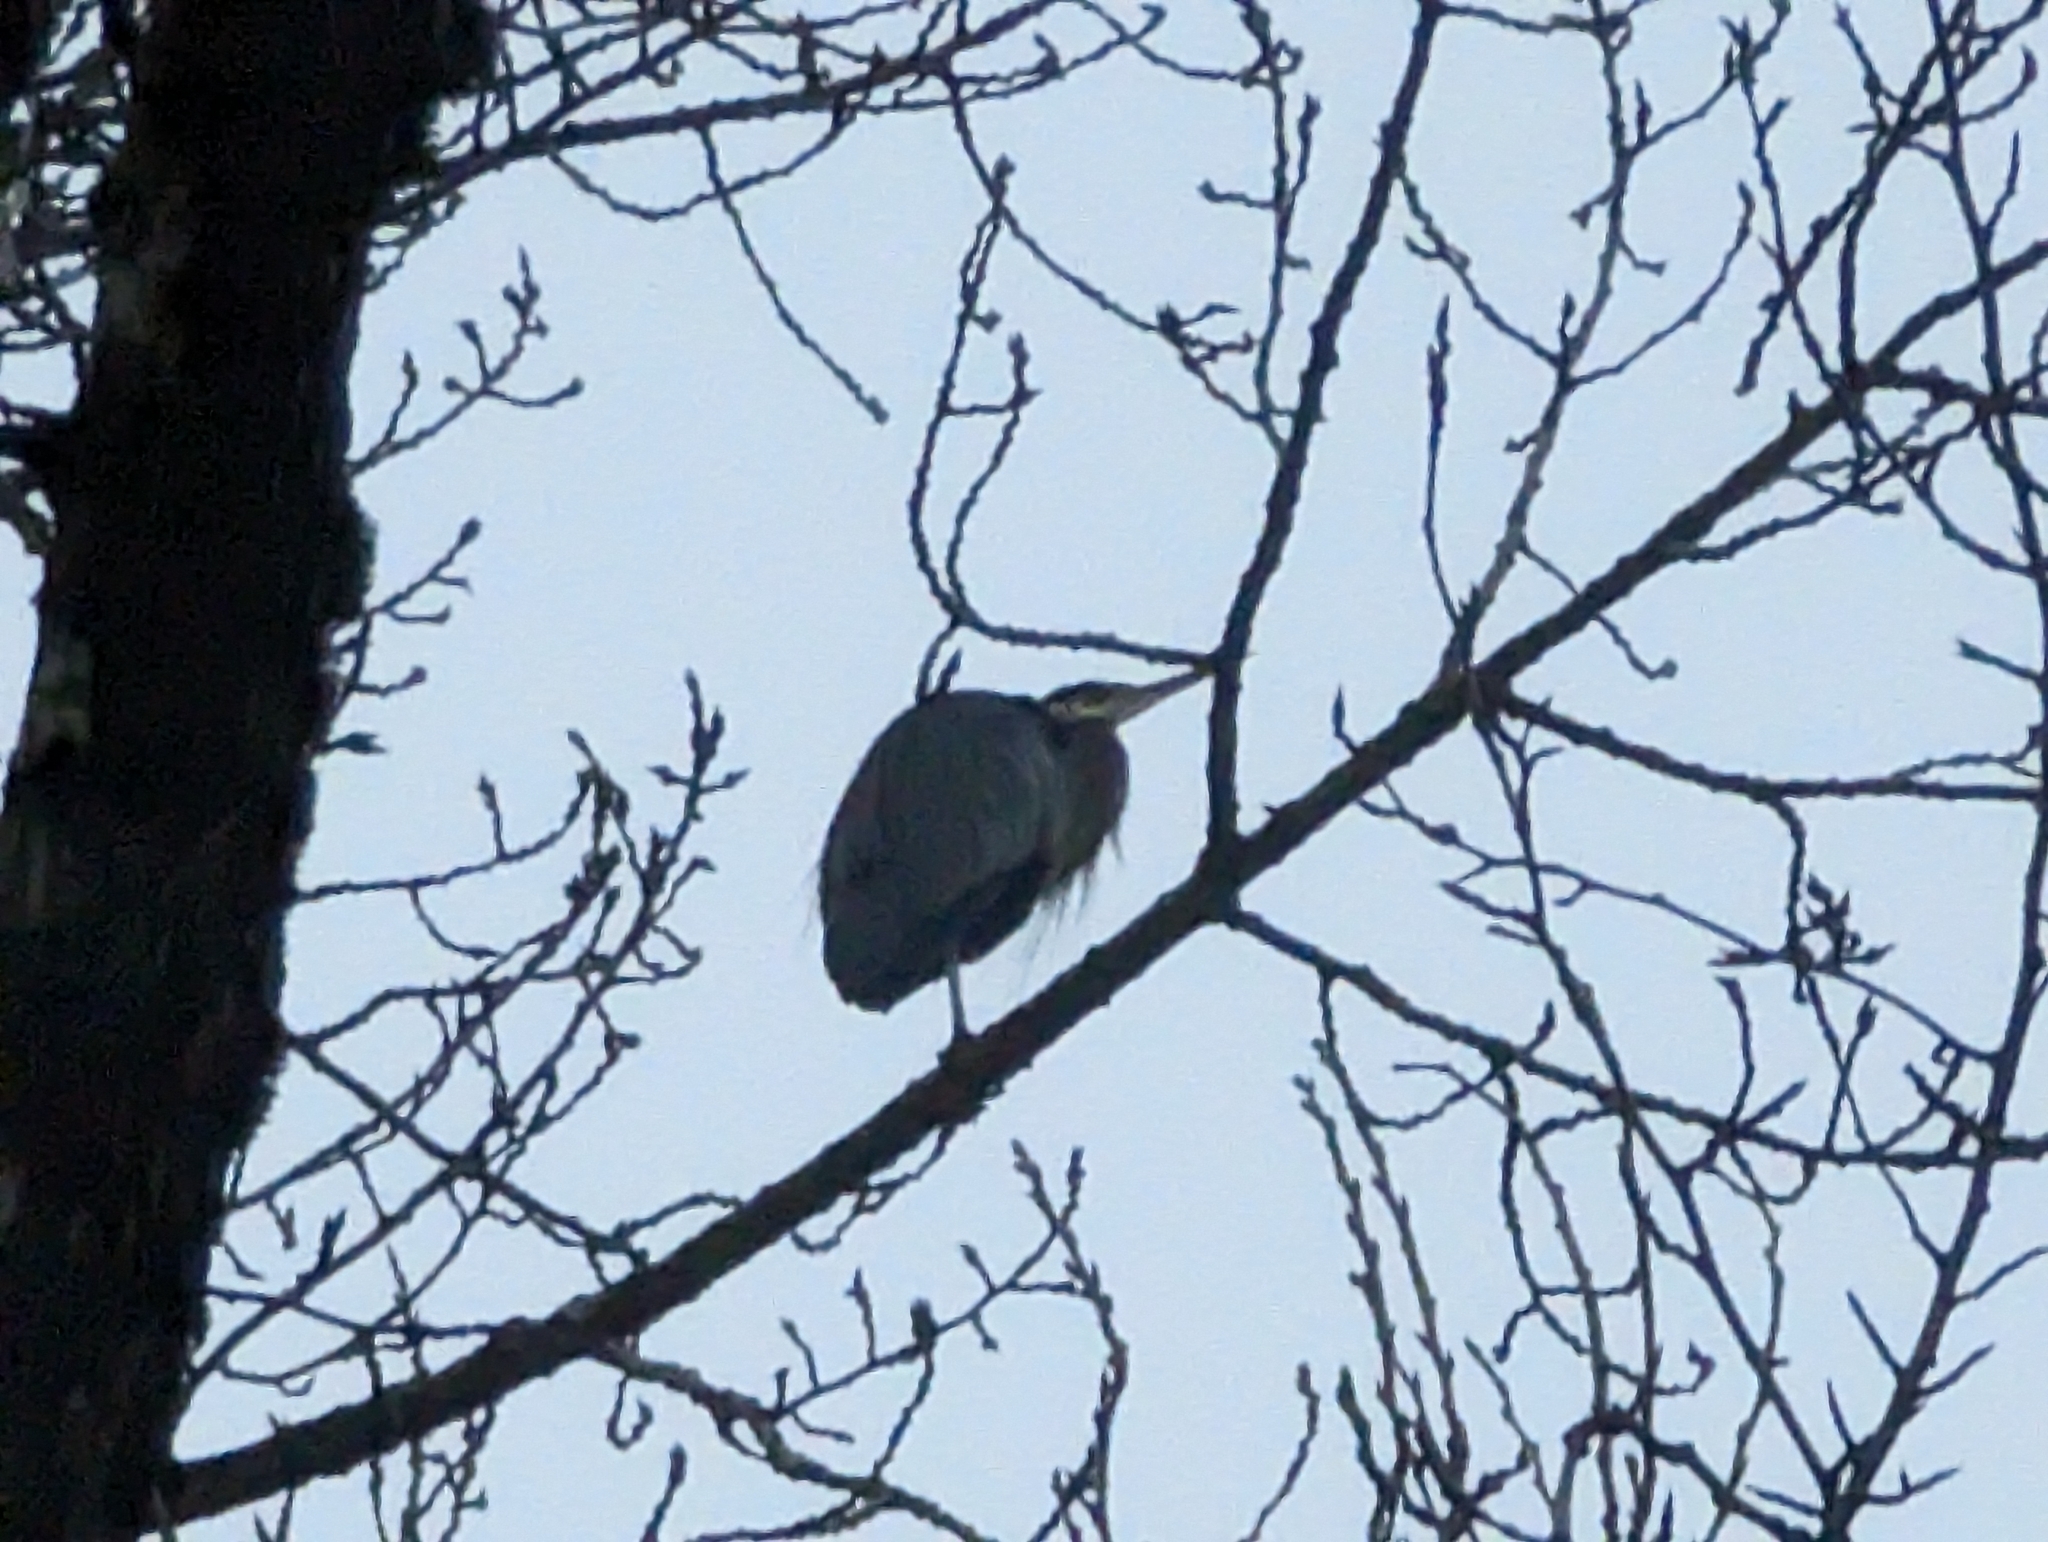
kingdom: Animalia
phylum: Chordata
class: Aves
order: Pelecaniformes
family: Ardeidae
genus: Ardea
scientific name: Ardea herodias
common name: Great blue heron
